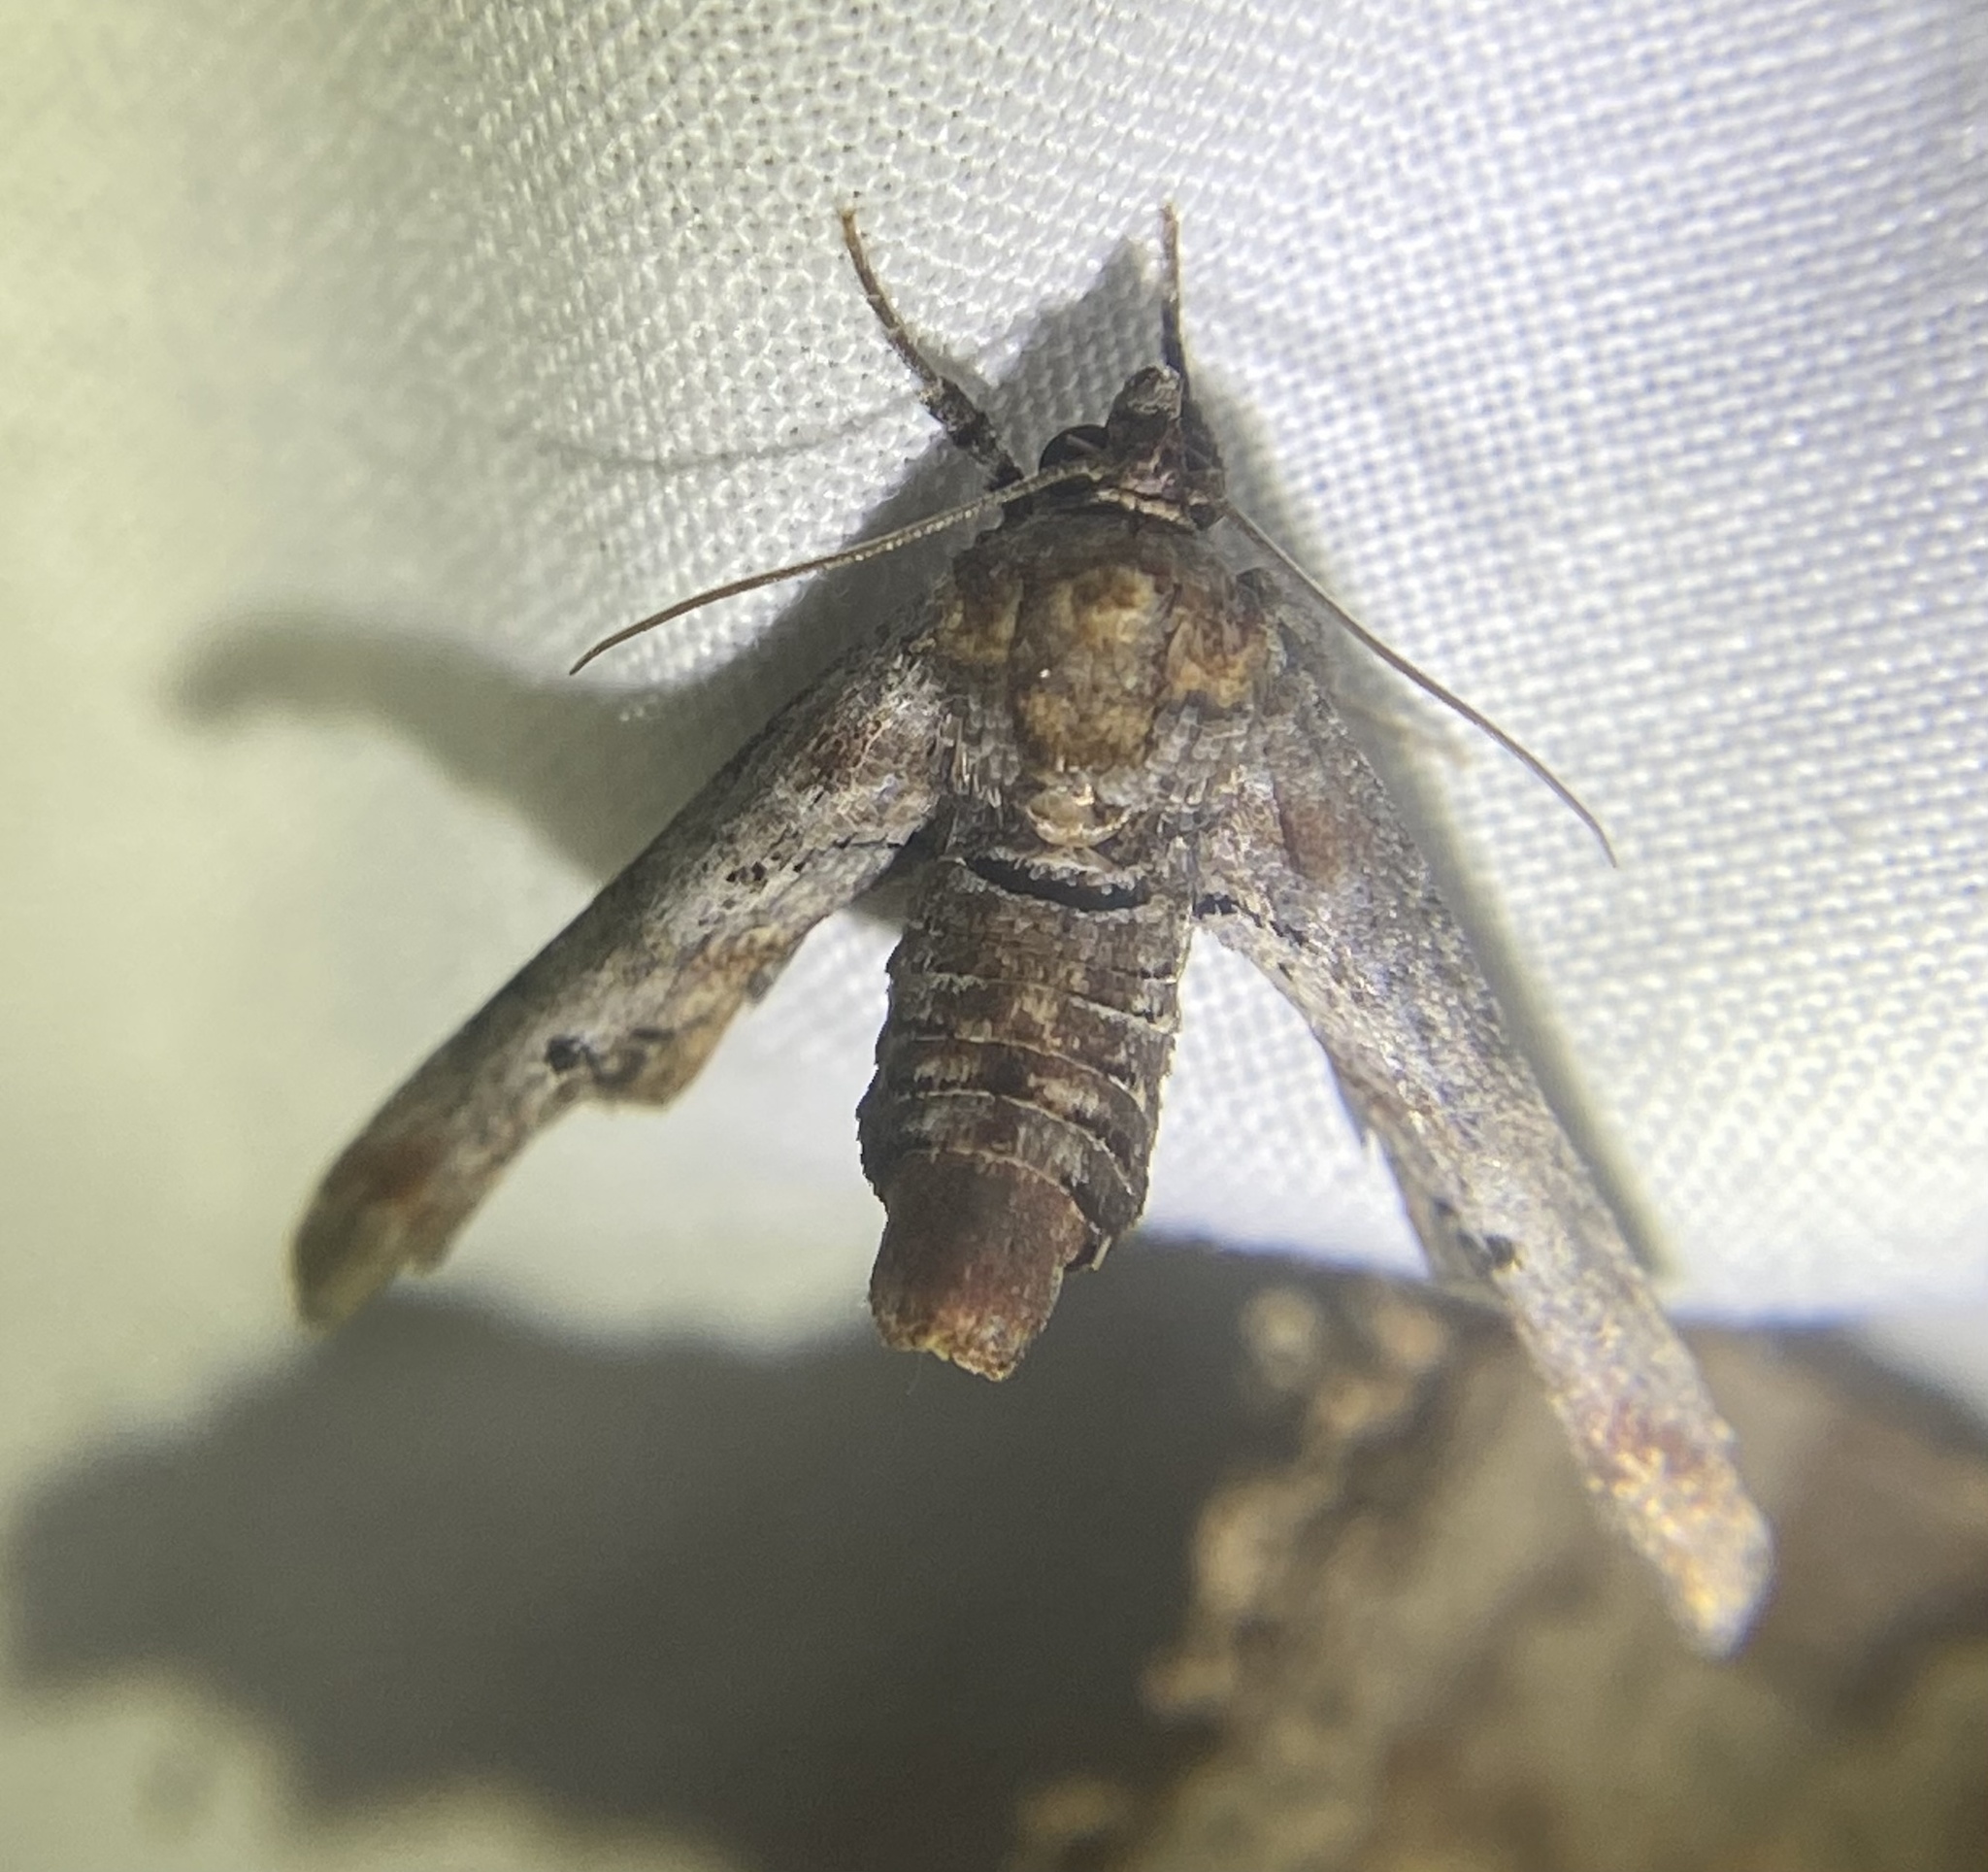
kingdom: Animalia
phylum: Arthropoda
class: Insecta
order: Lepidoptera
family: Euteliidae
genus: Marathyssa
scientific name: Marathyssa inficita
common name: Dark marathyssa moth
